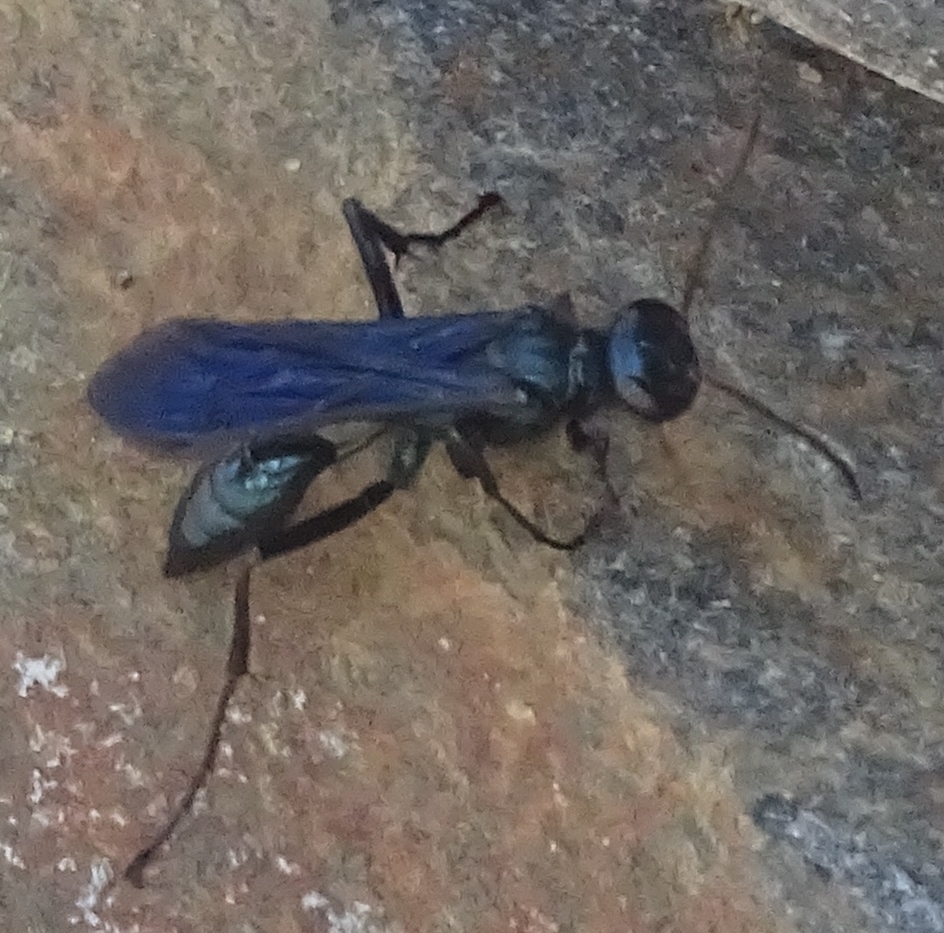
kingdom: Animalia
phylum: Arthropoda
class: Insecta
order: Hymenoptera
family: Sphecidae
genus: Chalybion
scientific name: Chalybion californicum
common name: Mud dauber
